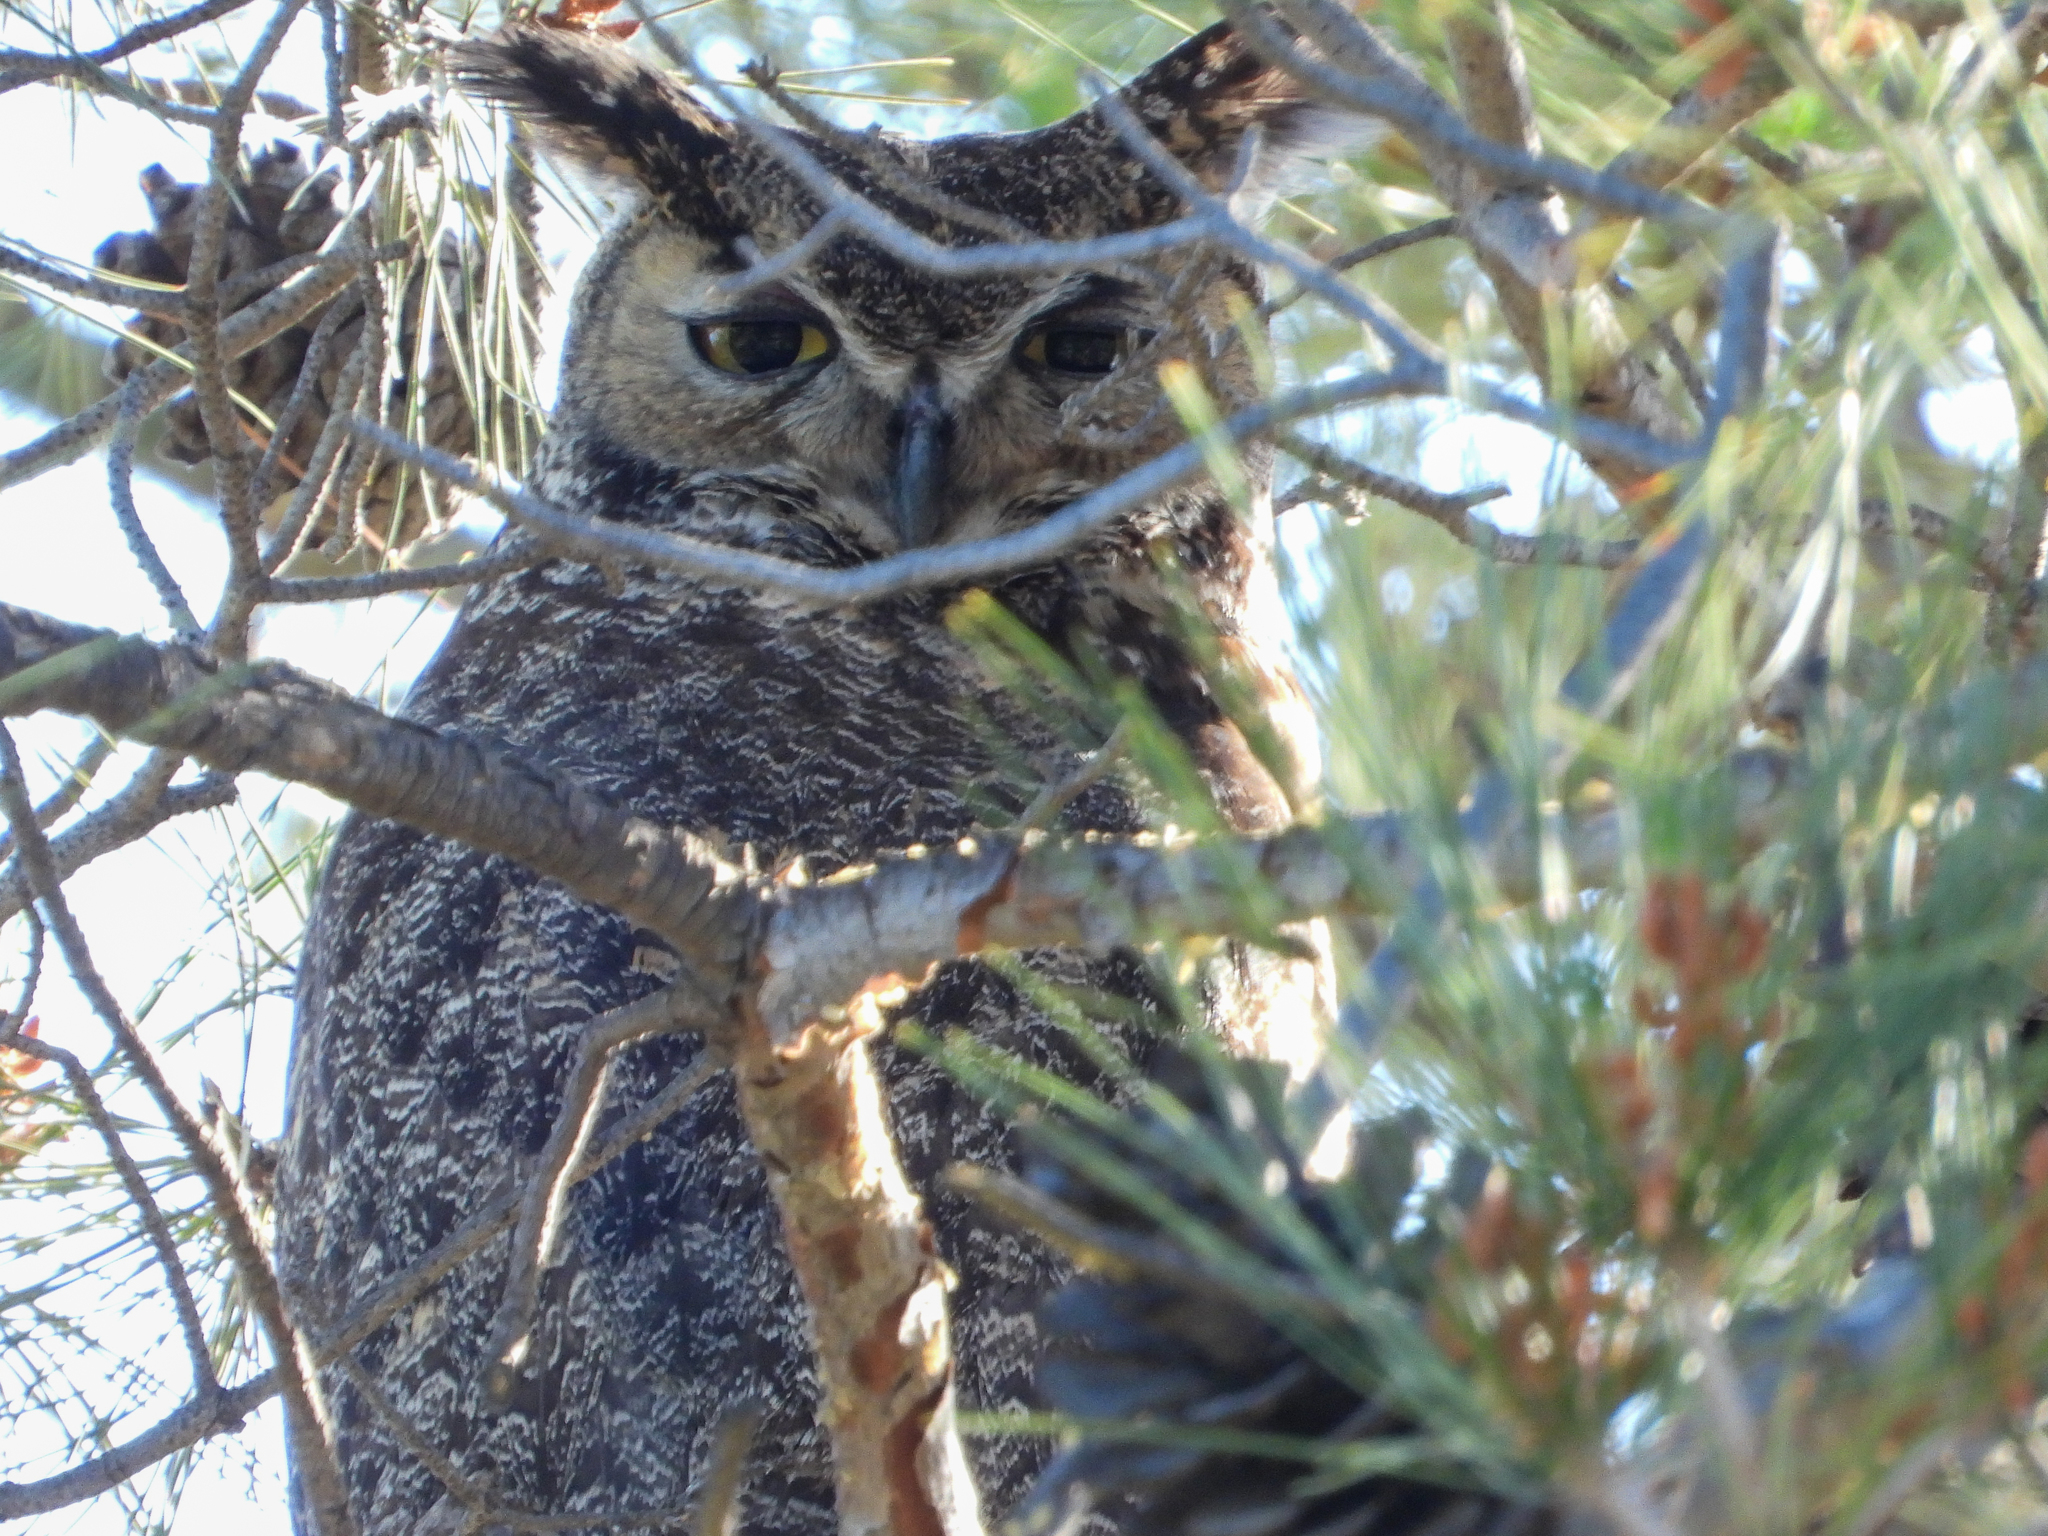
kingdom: Animalia
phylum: Chordata
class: Aves
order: Strigiformes
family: Strigidae
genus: Bubo
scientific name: Bubo virginianus
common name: Great horned owl
